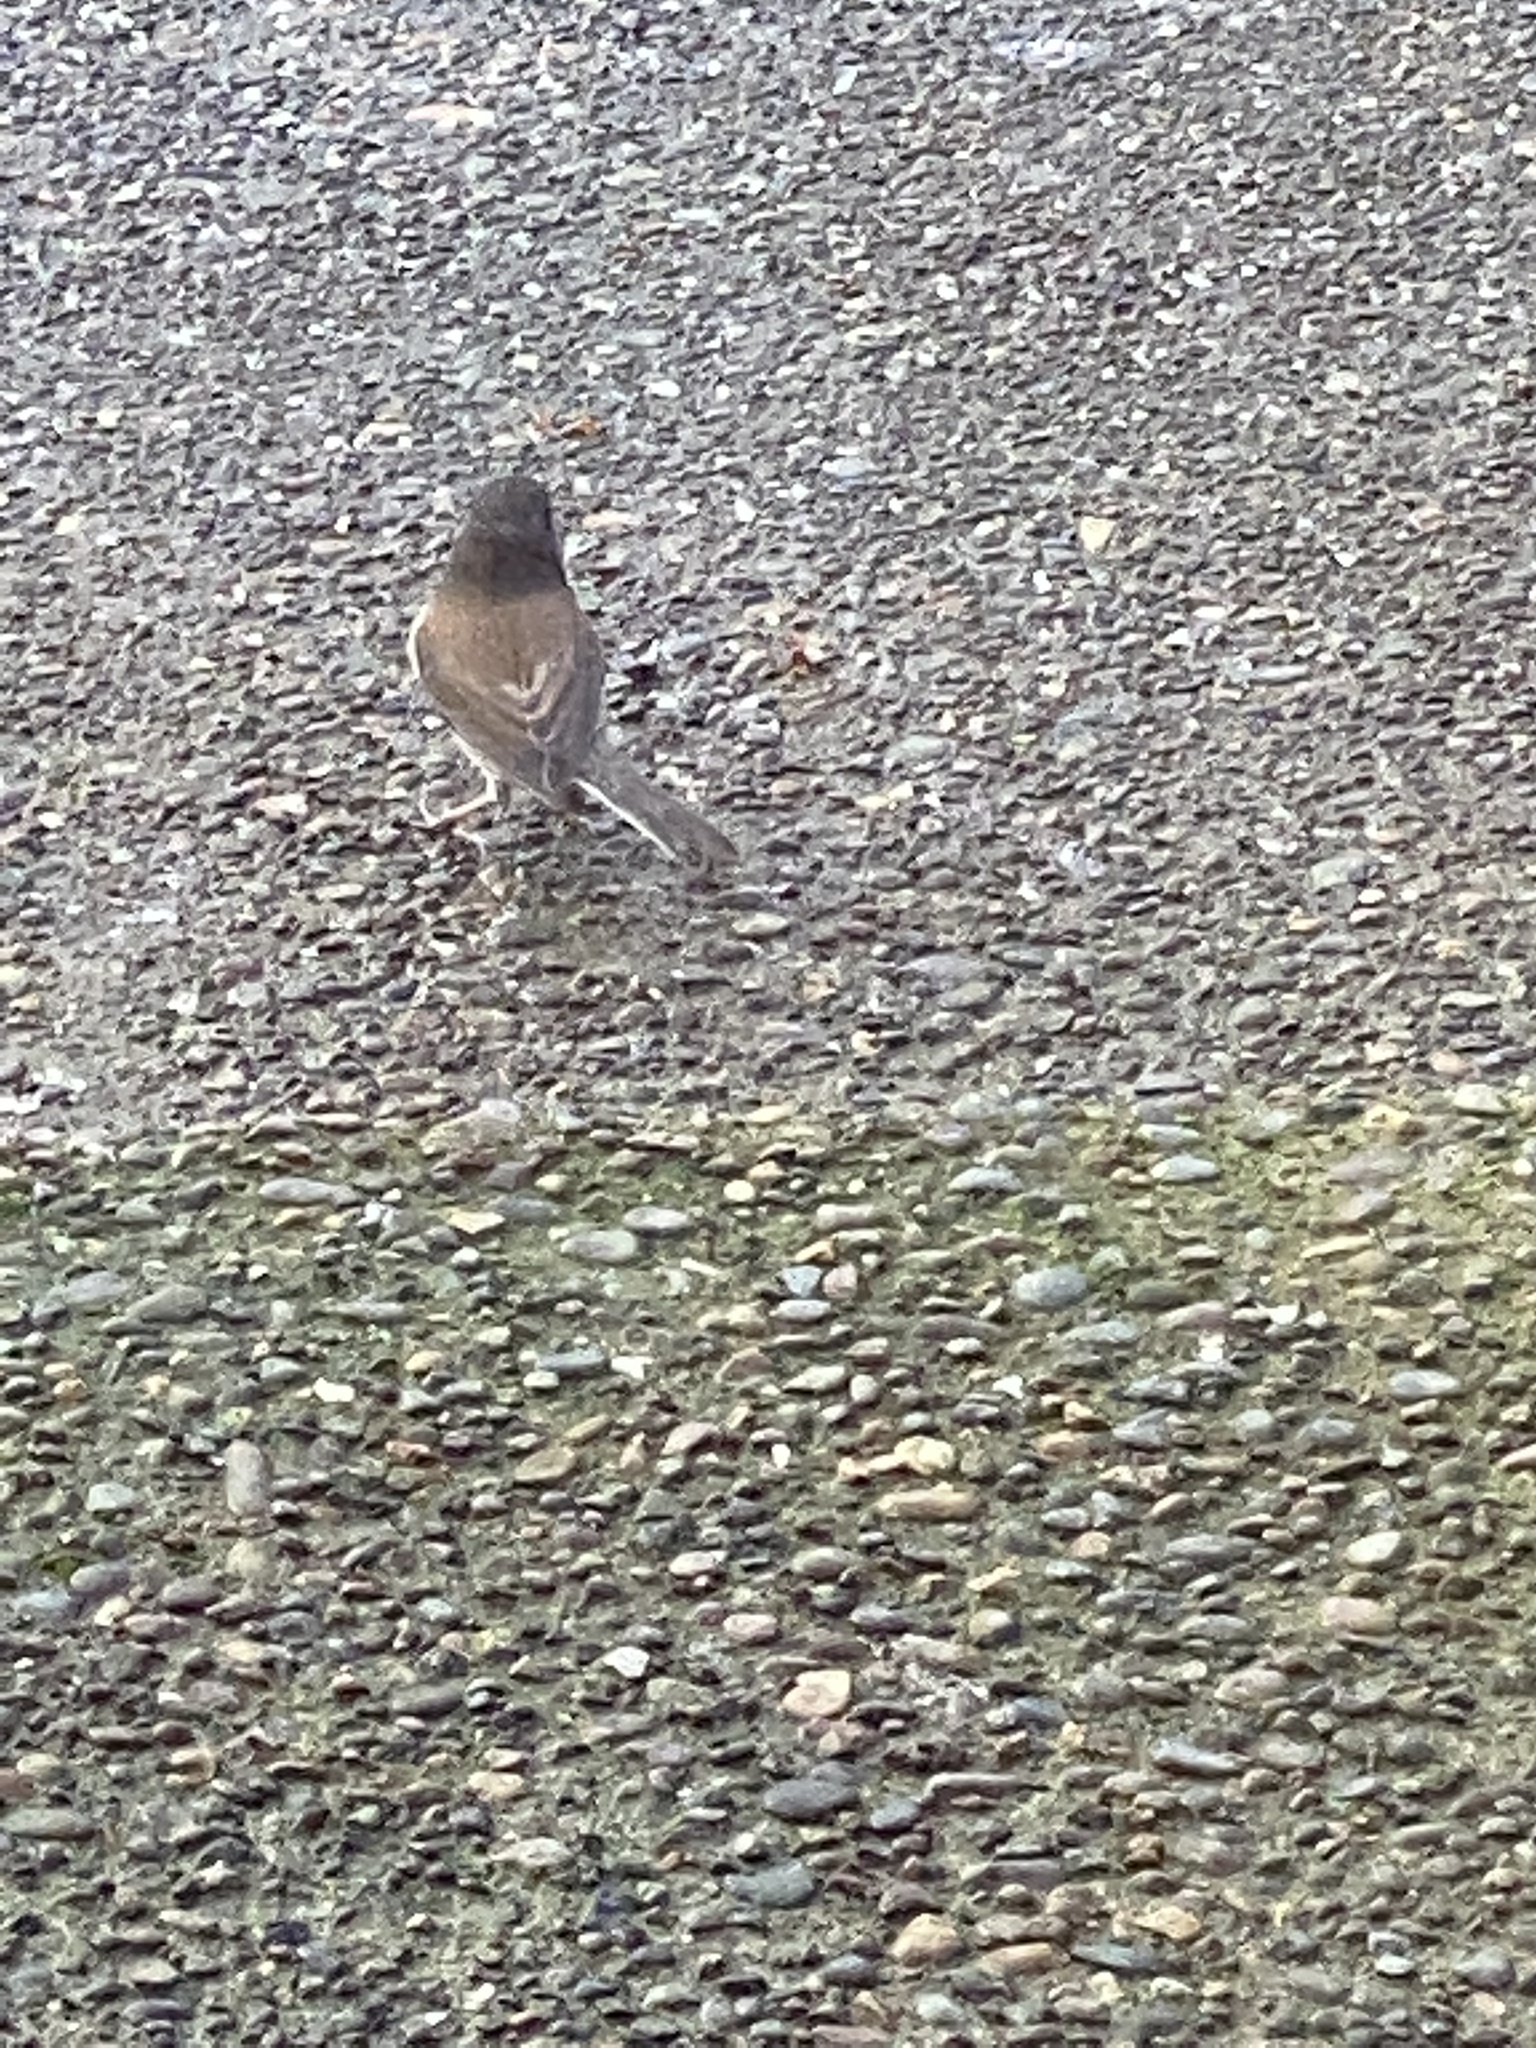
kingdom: Animalia
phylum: Chordata
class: Aves
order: Passeriformes
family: Passerellidae
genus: Junco
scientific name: Junco hyemalis
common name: Dark-eyed junco
